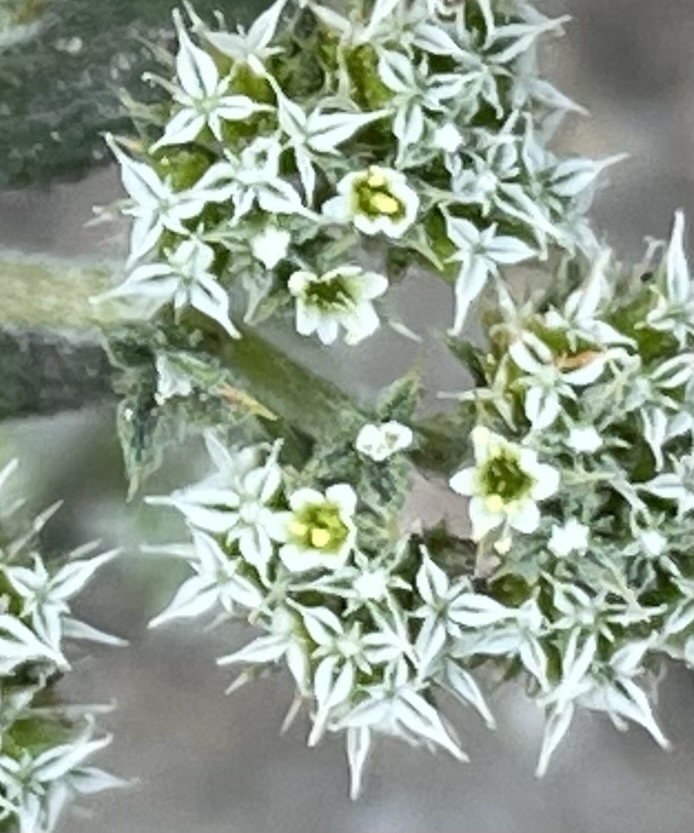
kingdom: Plantae
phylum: Tracheophyta
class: Magnoliopsida
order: Caryophyllales
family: Polygonaceae
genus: Chorizanthe
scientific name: Chorizanthe diffusa
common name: Diffuse spineflower
